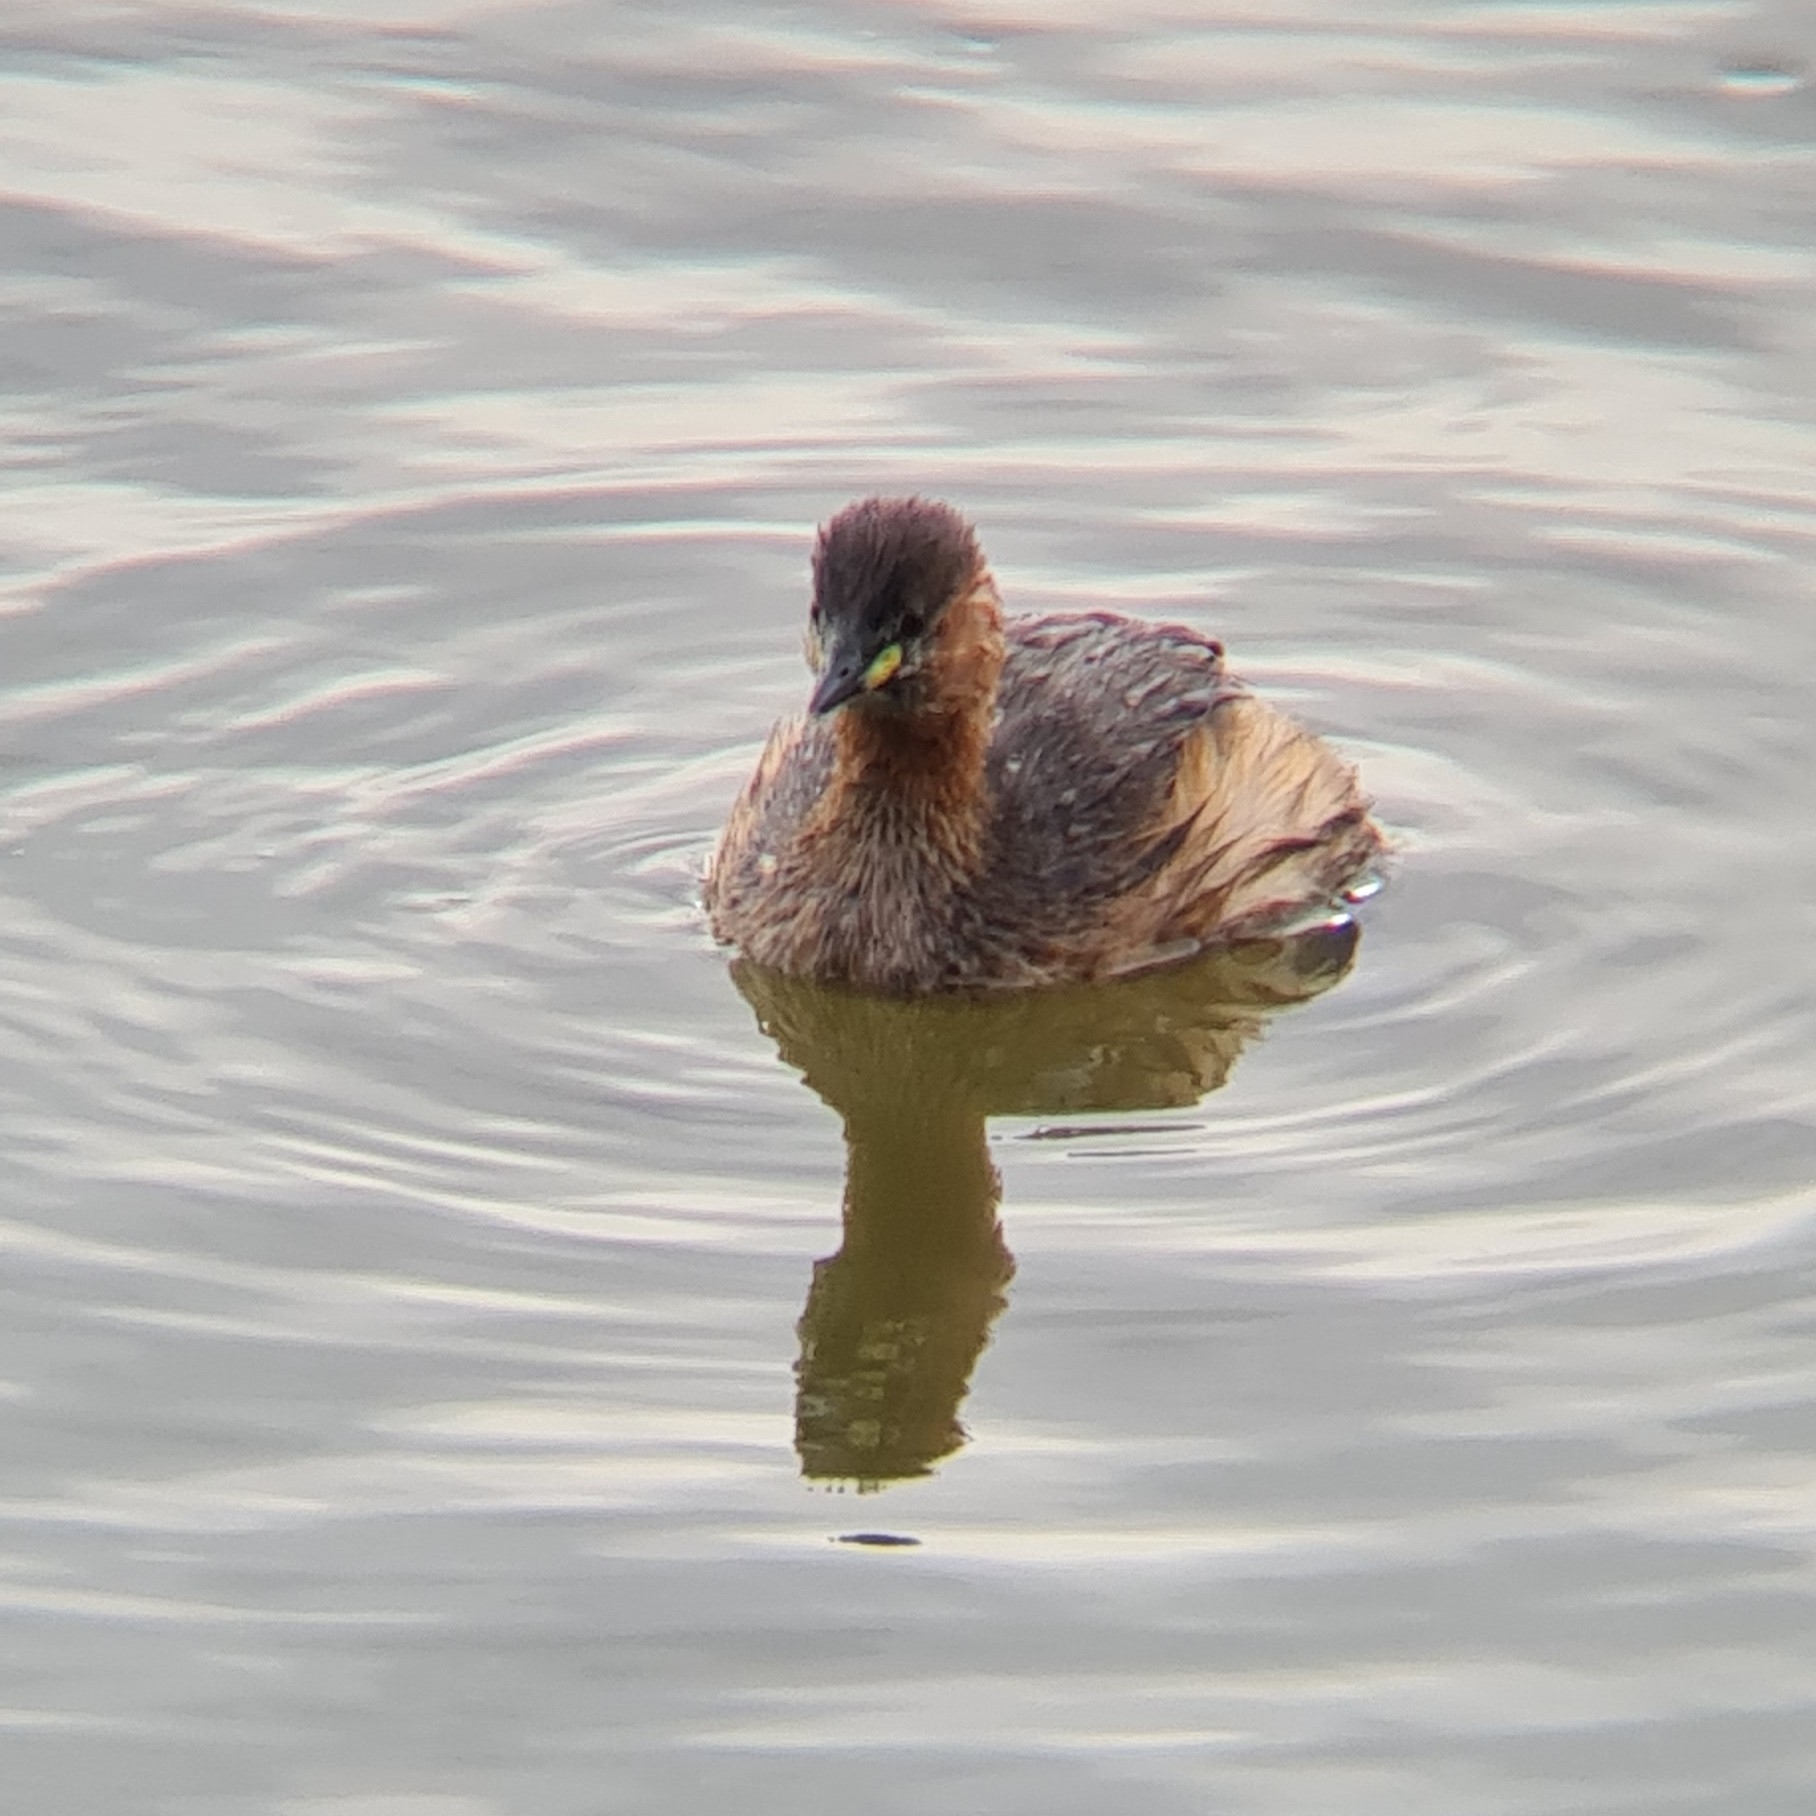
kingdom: Animalia
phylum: Chordata
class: Aves
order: Podicipediformes
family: Podicipedidae
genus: Tachybaptus
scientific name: Tachybaptus ruficollis
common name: Little grebe
